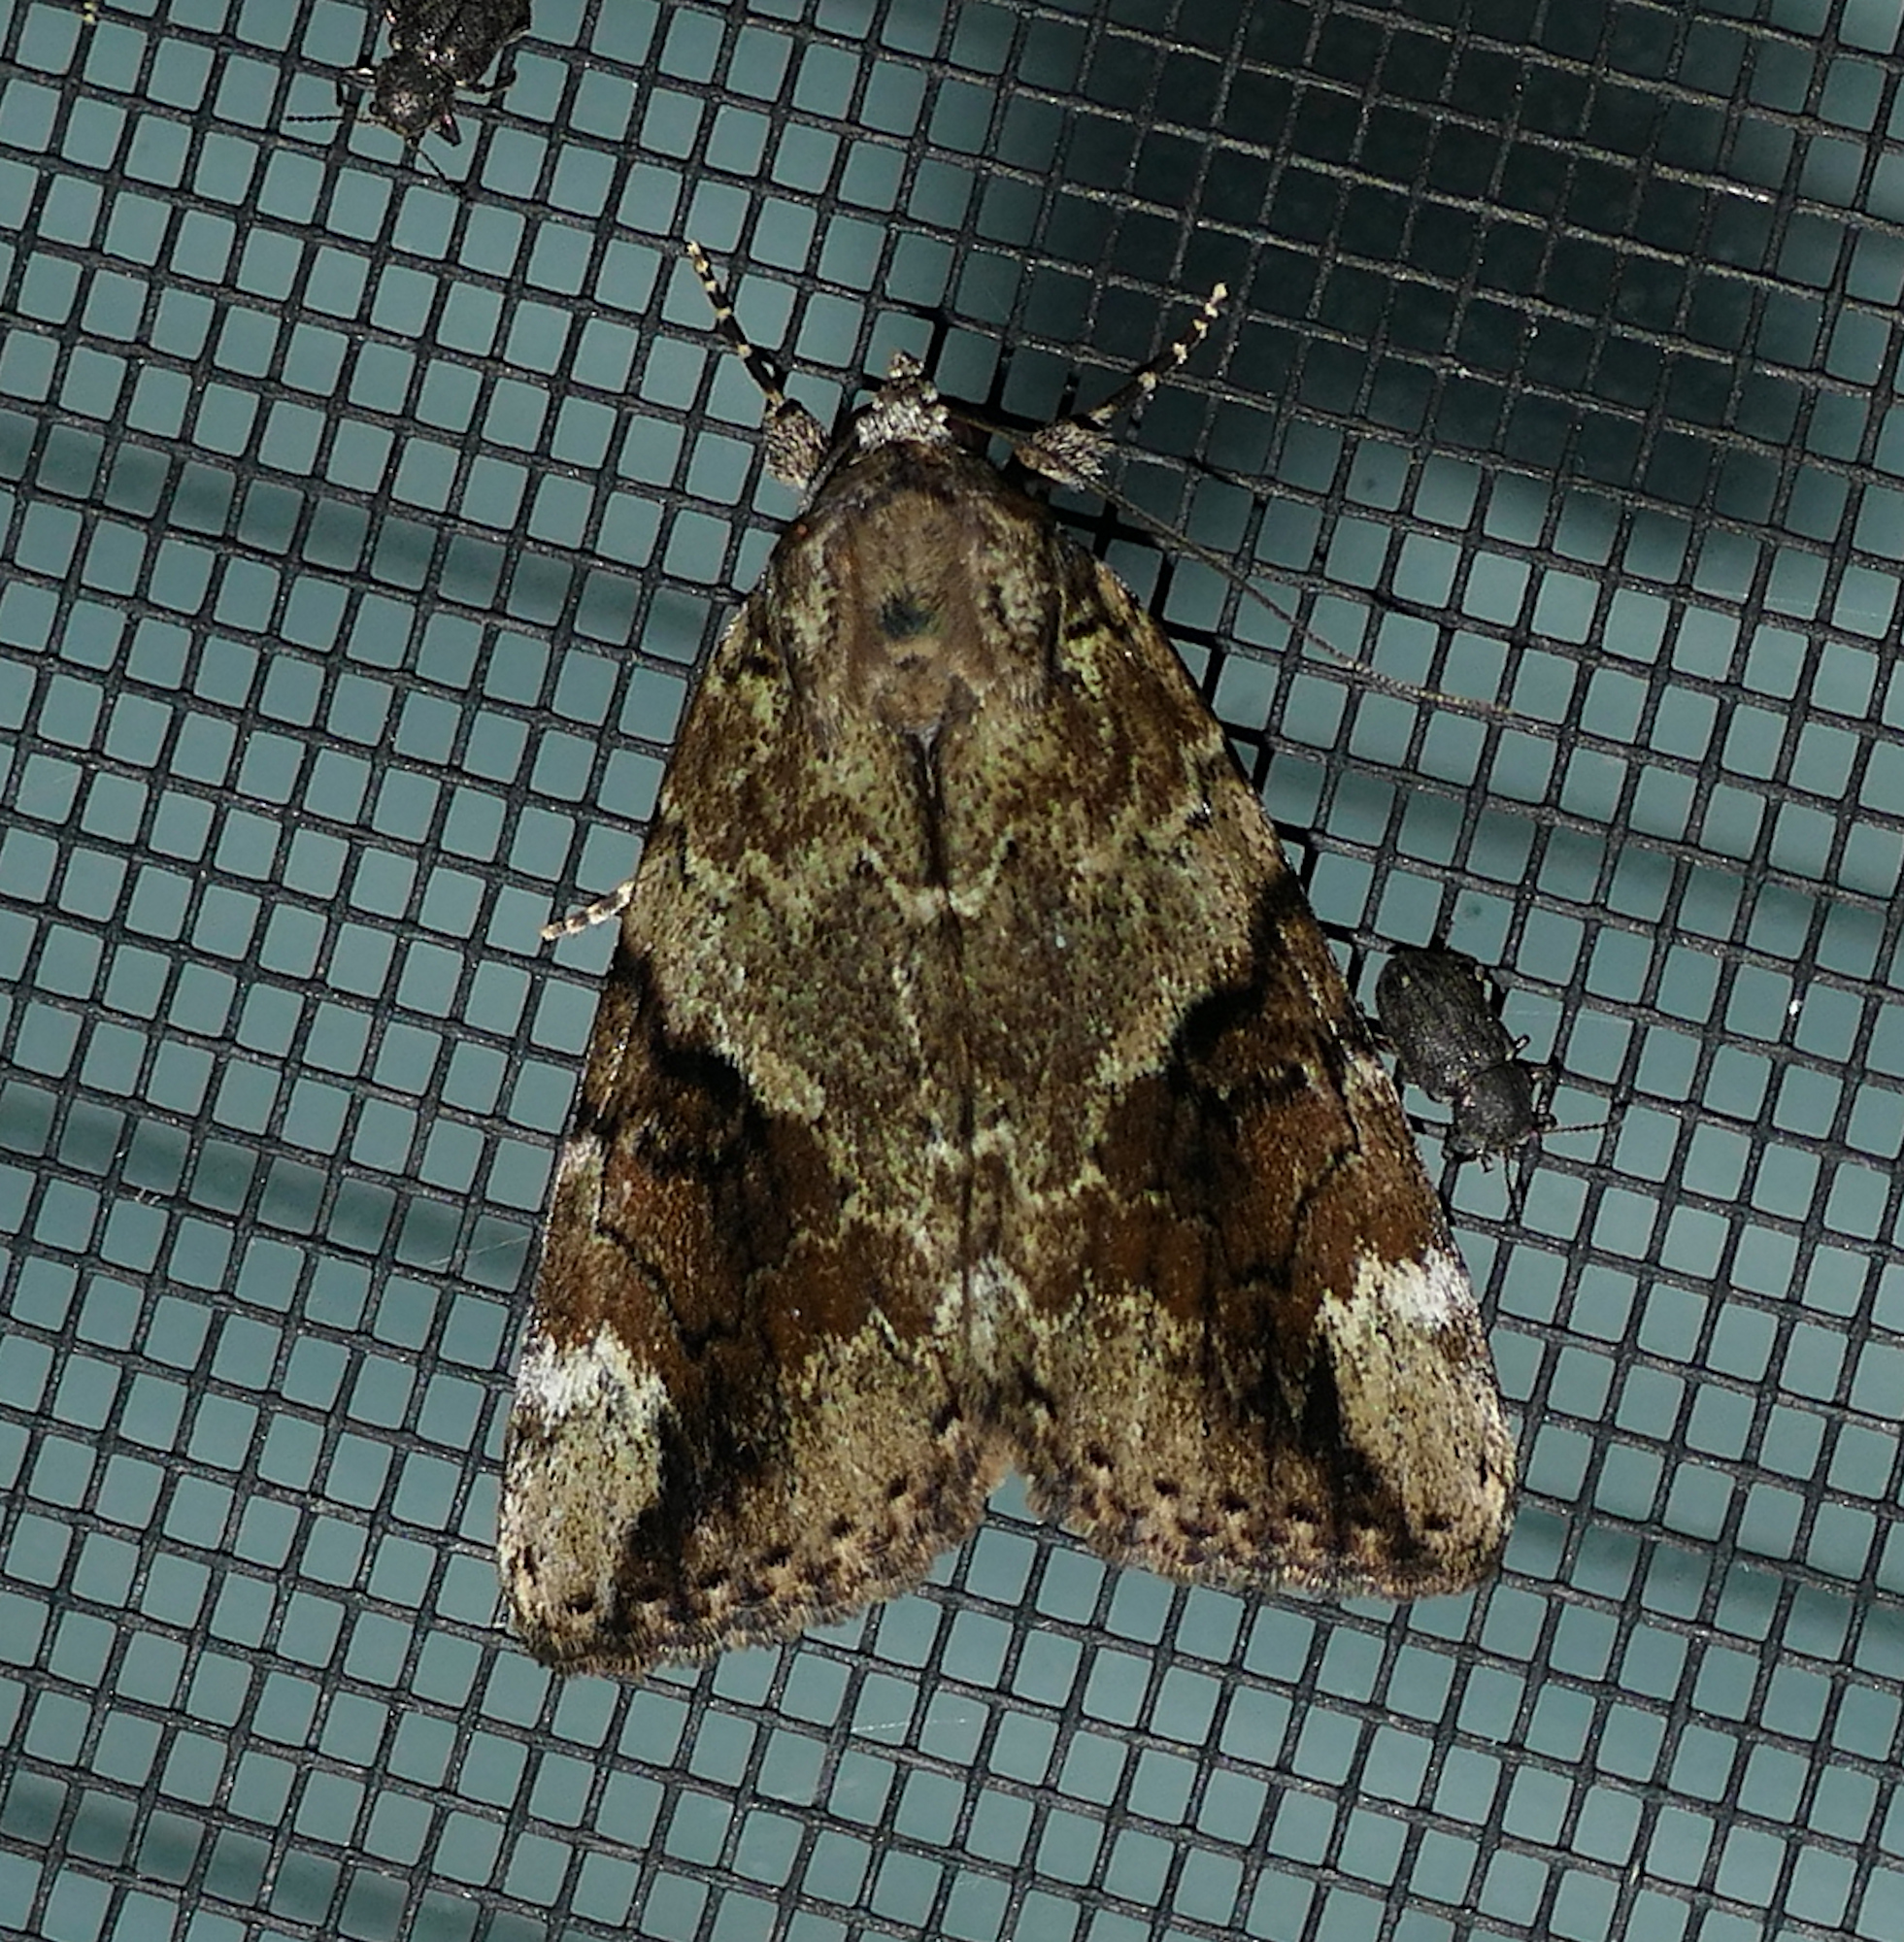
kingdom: Animalia
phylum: Arthropoda
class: Insecta
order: Lepidoptera
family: Erebidae
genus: Catocala
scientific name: Catocala micronympha
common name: Little nymph underwing
